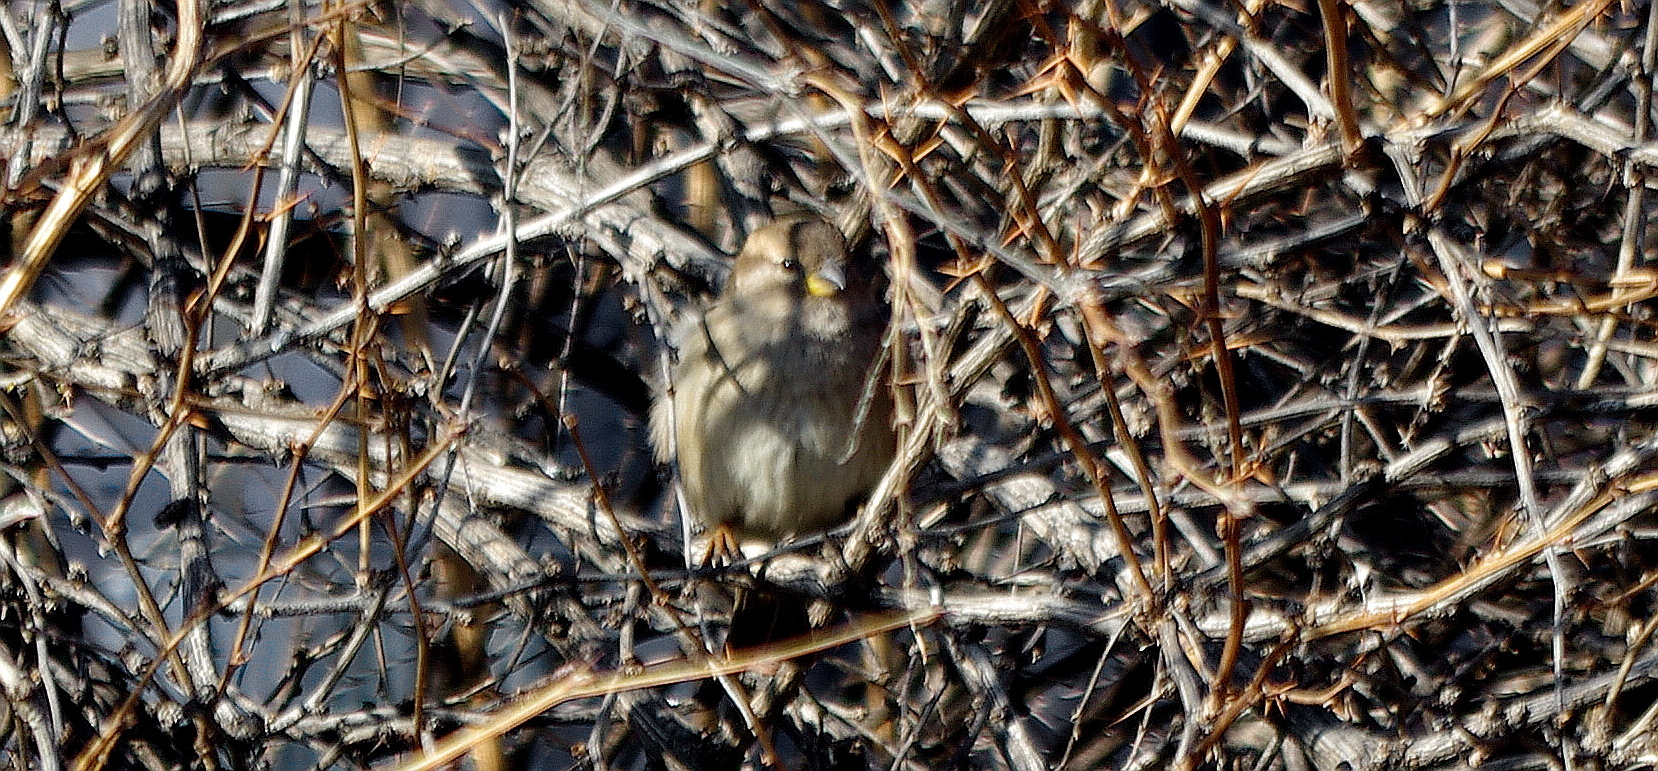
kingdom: Animalia
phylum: Chordata
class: Aves
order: Passeriformes
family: Passeridae
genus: Passer
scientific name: Passer domesticus
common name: House sparrow
